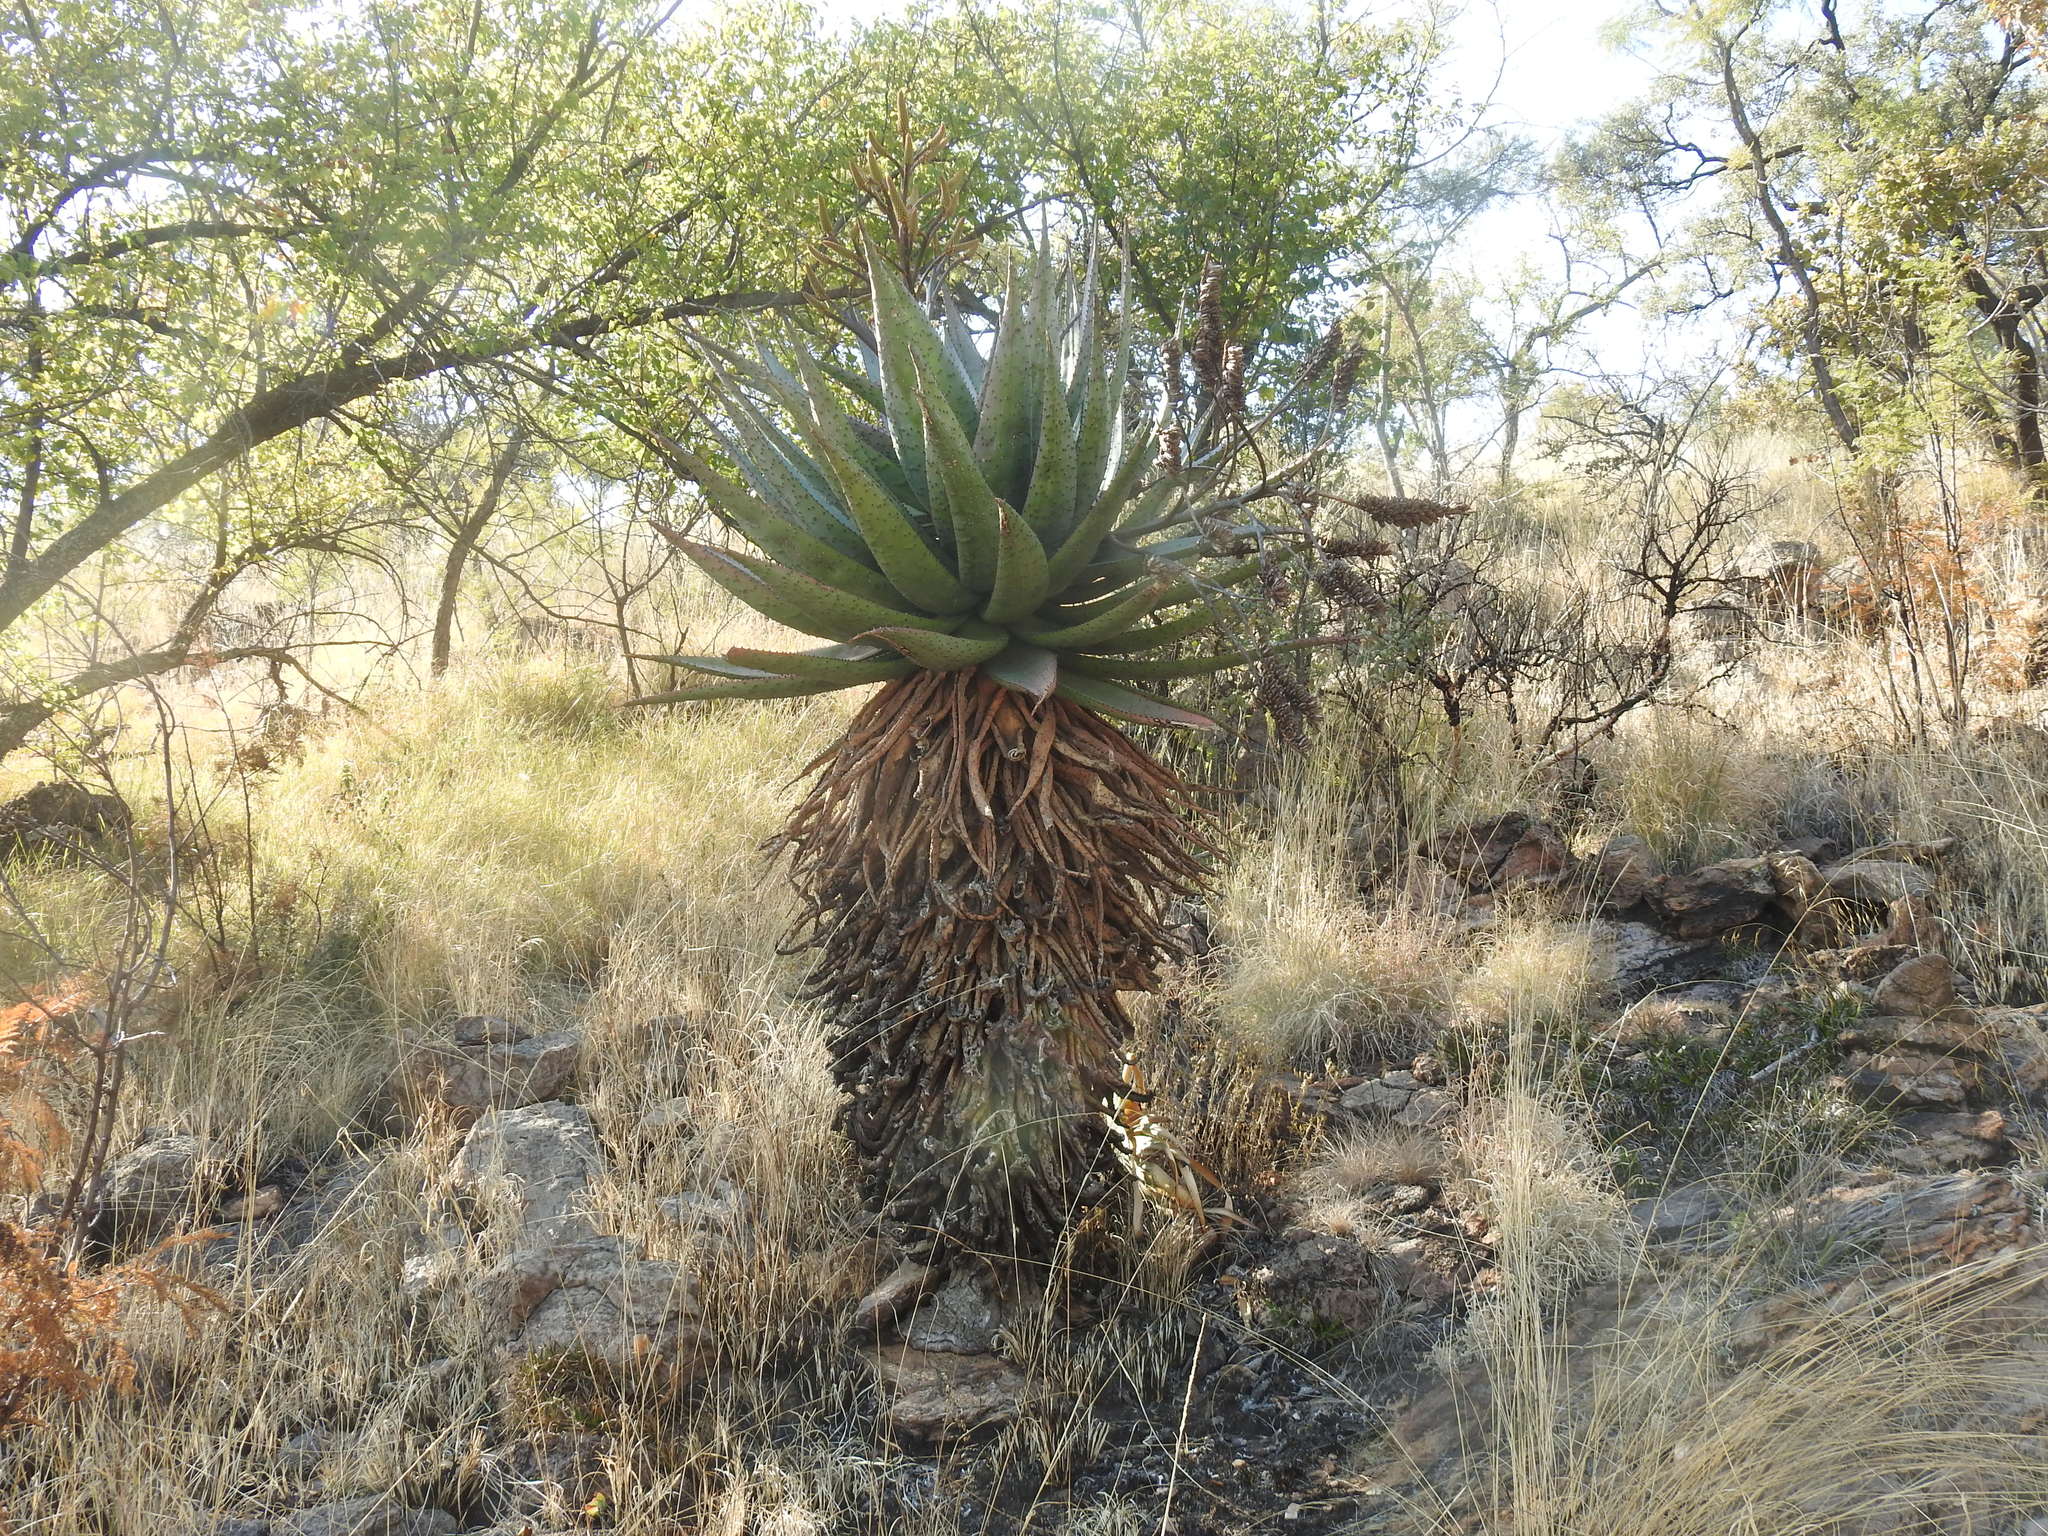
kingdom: Plantae
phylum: Tracheophyta
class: Liliopsida
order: Asparagales
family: Asphodelaceae
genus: Aloe
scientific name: Aloe marlothii
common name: Flat-flowered aloe
